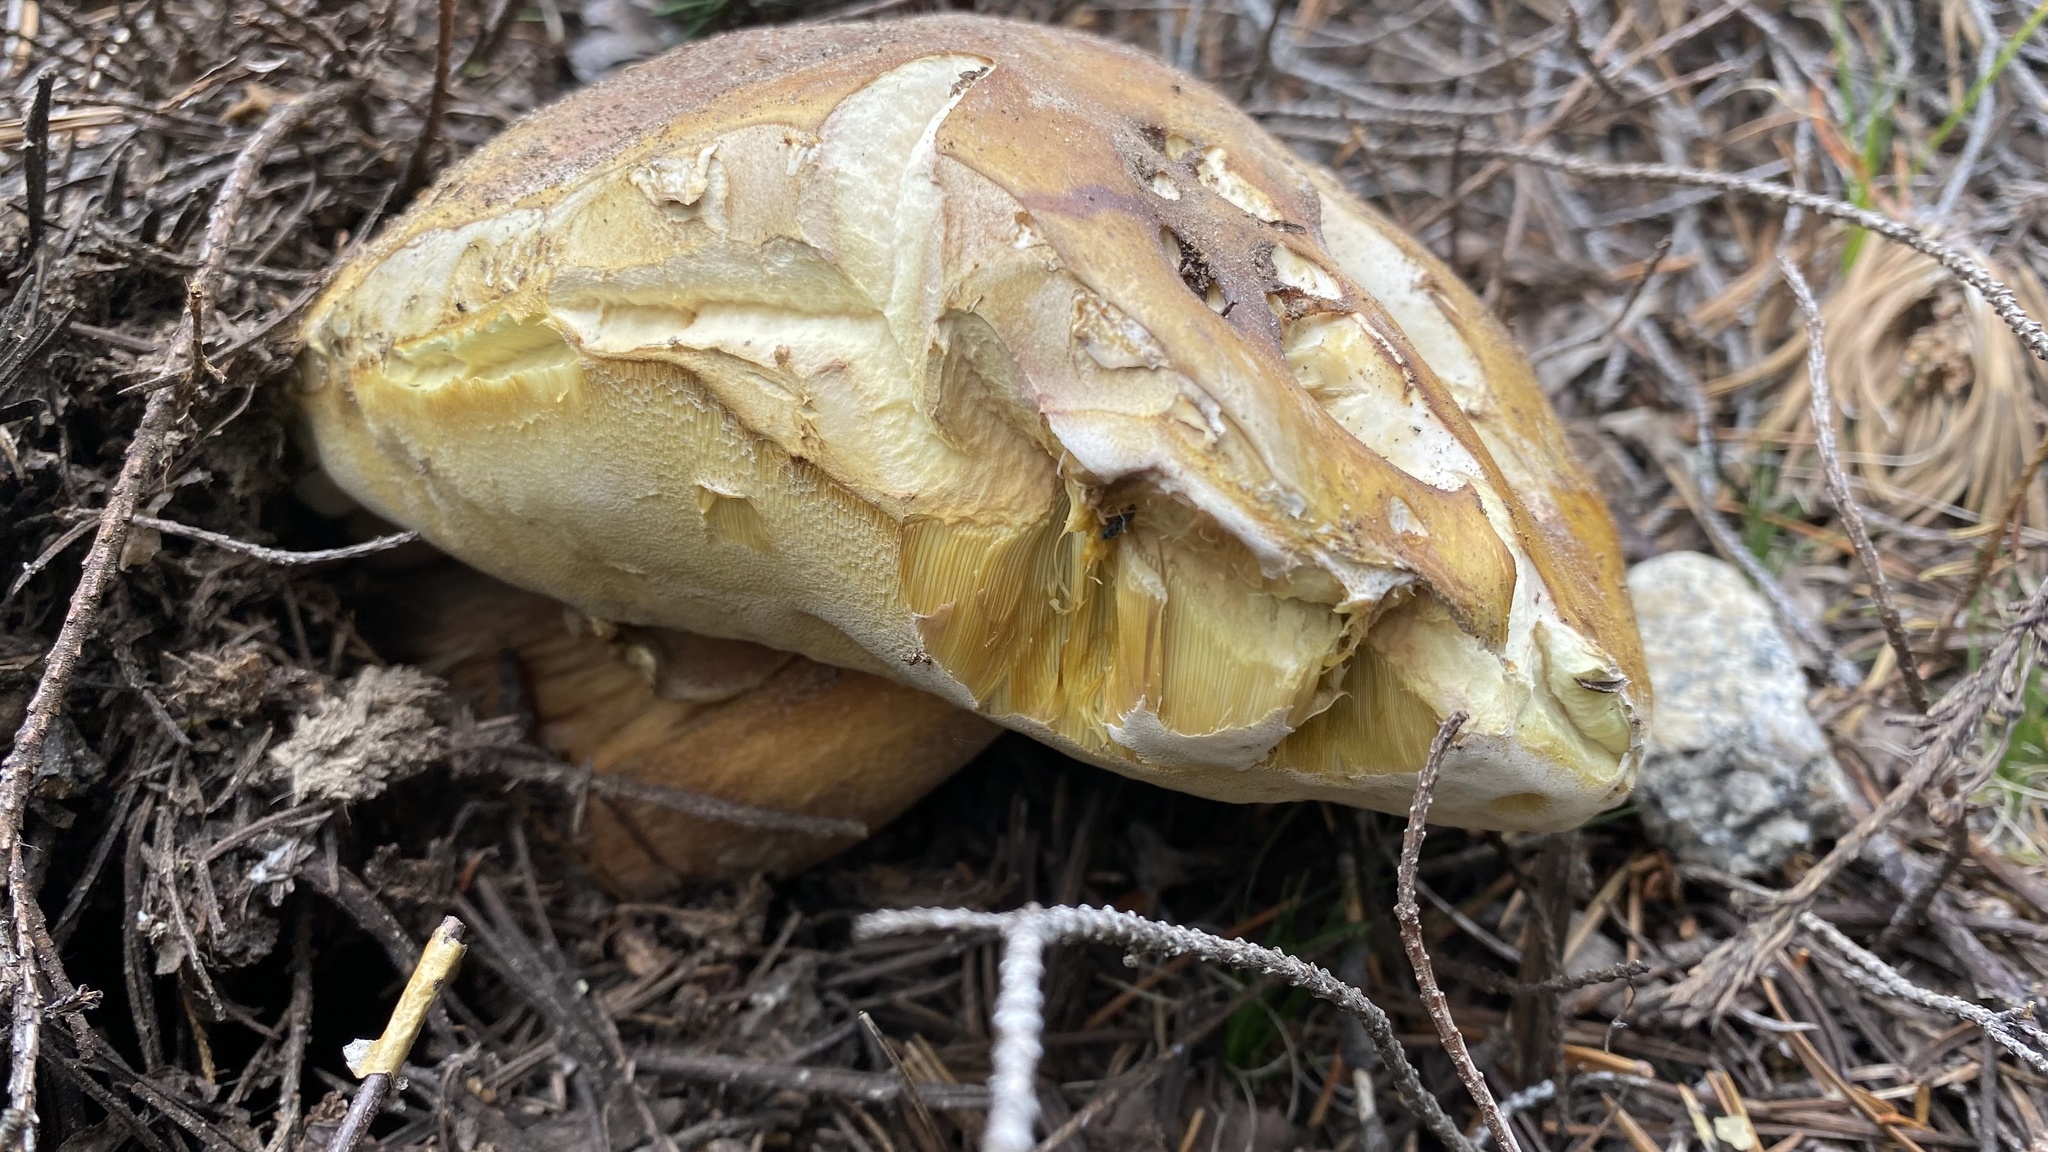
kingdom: Fungi
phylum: Basidiomycota
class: Agaricomycetes
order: Boletales
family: Boletaceae
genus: Boletus
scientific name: Boletus edulis
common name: Cep
